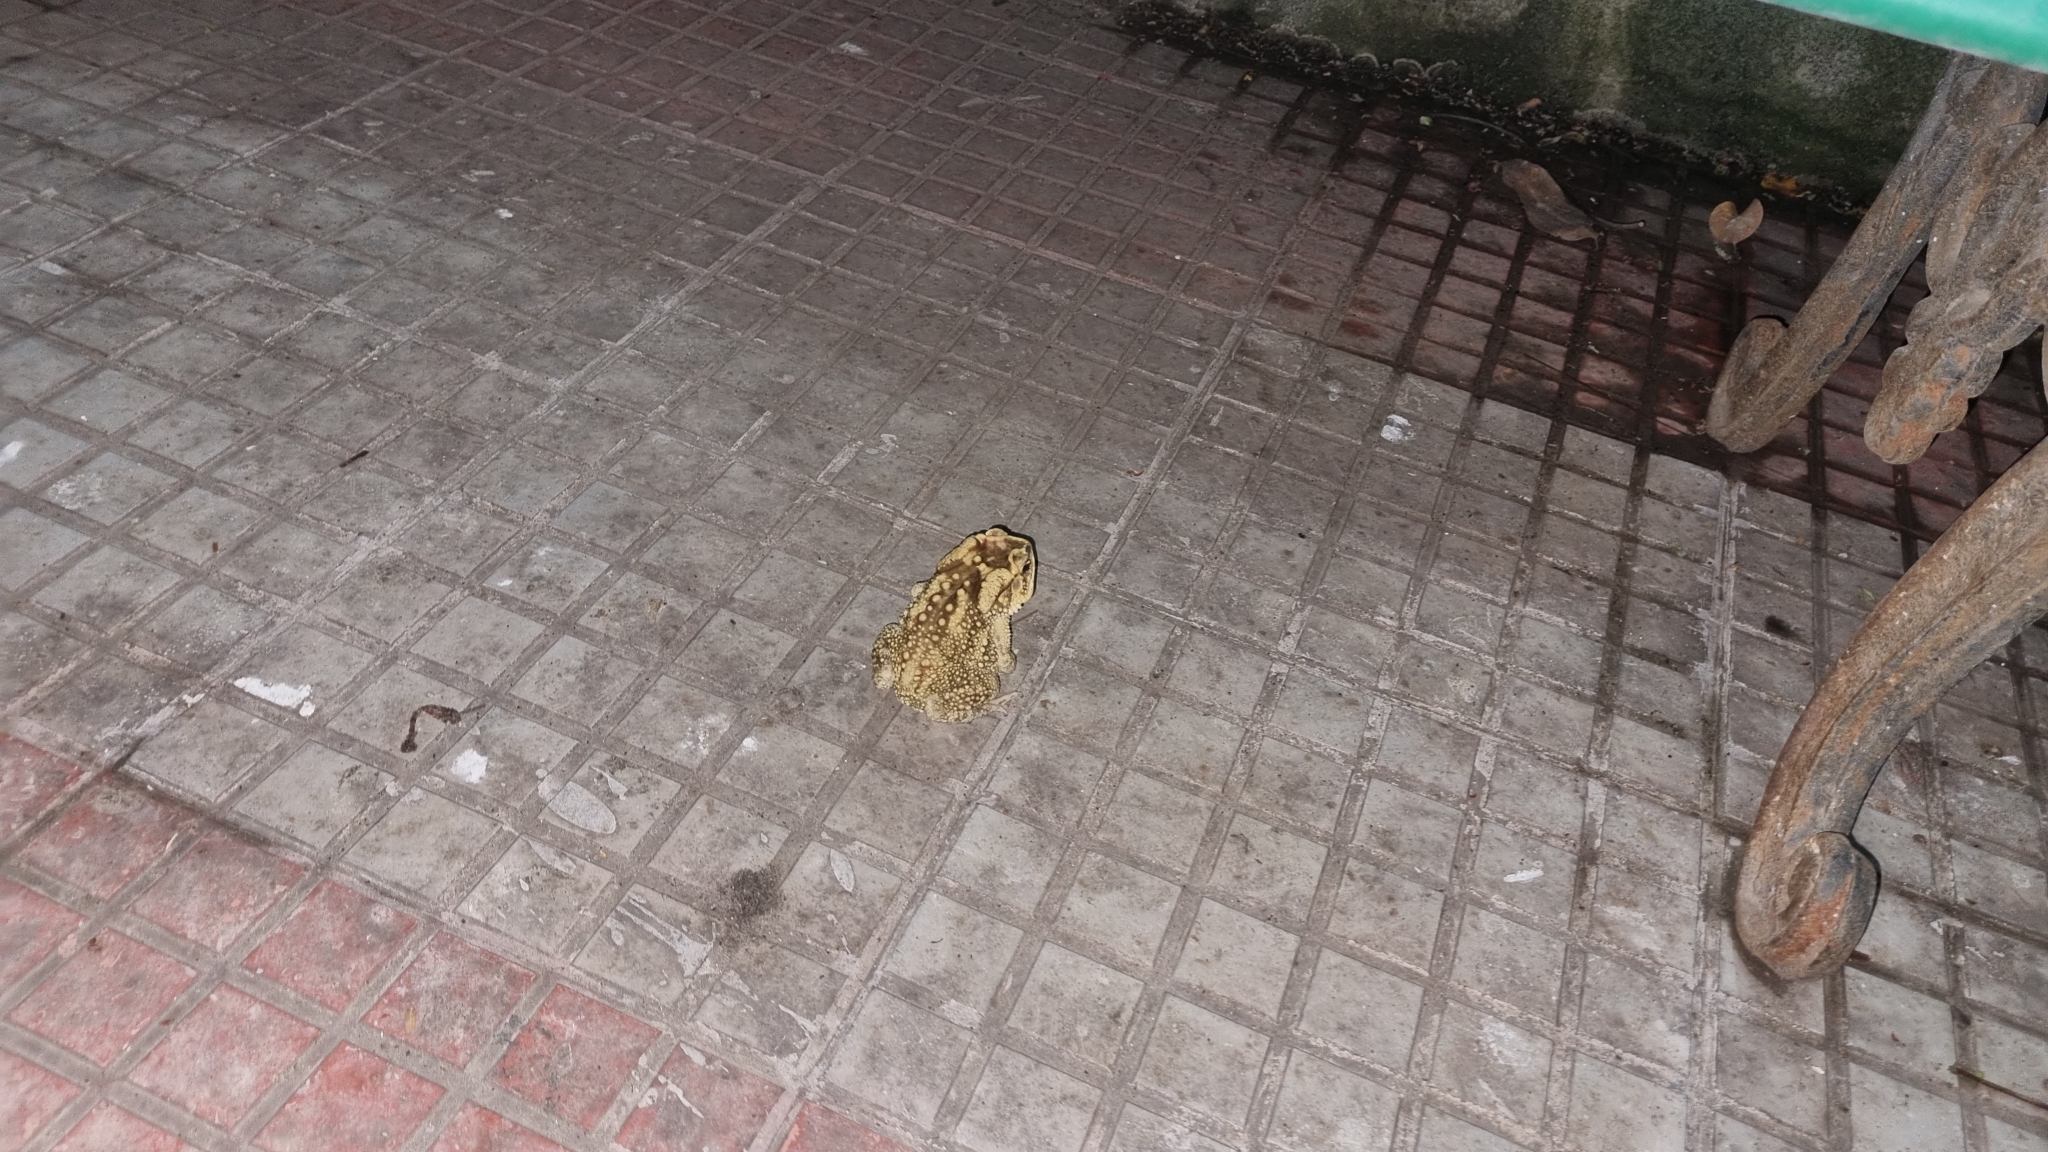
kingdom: Animalia
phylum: Chordata
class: Amphibia
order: Anura
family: Bufonidae
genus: Duttaphrynus
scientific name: Duttaphrynus melanostictus
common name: Common sunda toad
